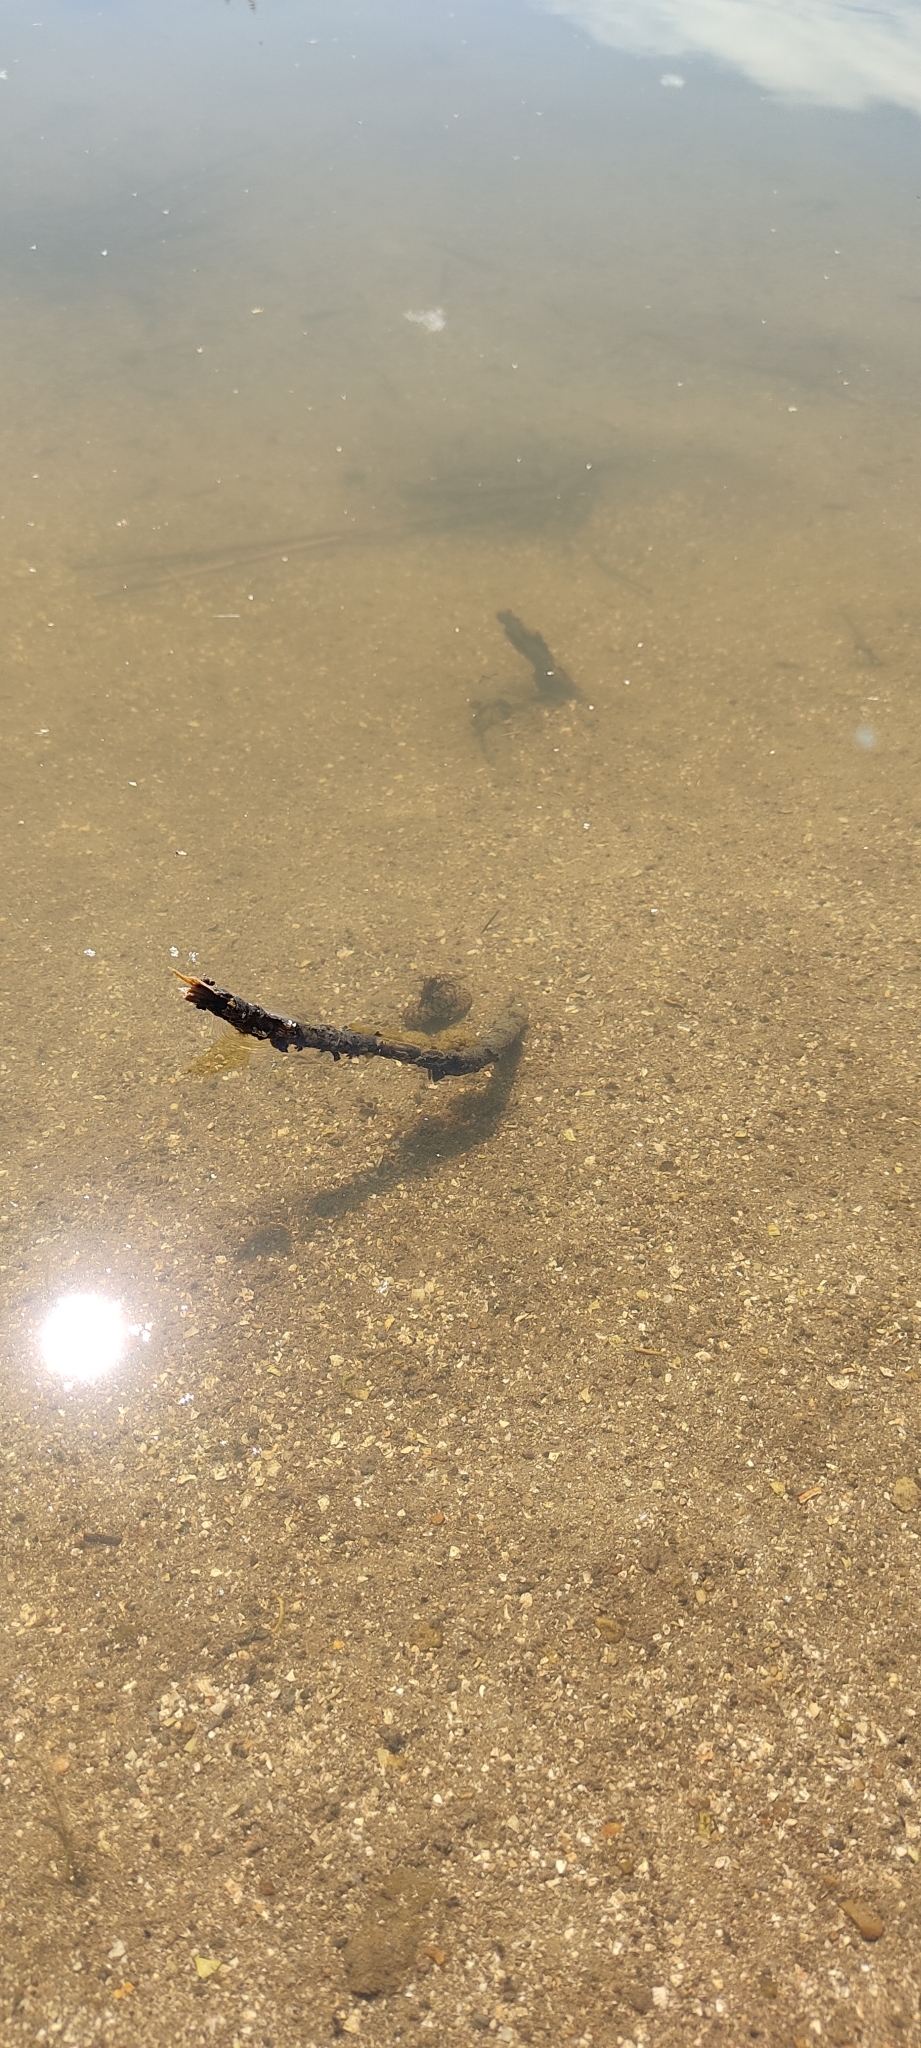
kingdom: Animalia
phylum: Chordata
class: Squamata
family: Colubridae
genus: Natrix
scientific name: Natrix maura
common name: Viperine water snake
